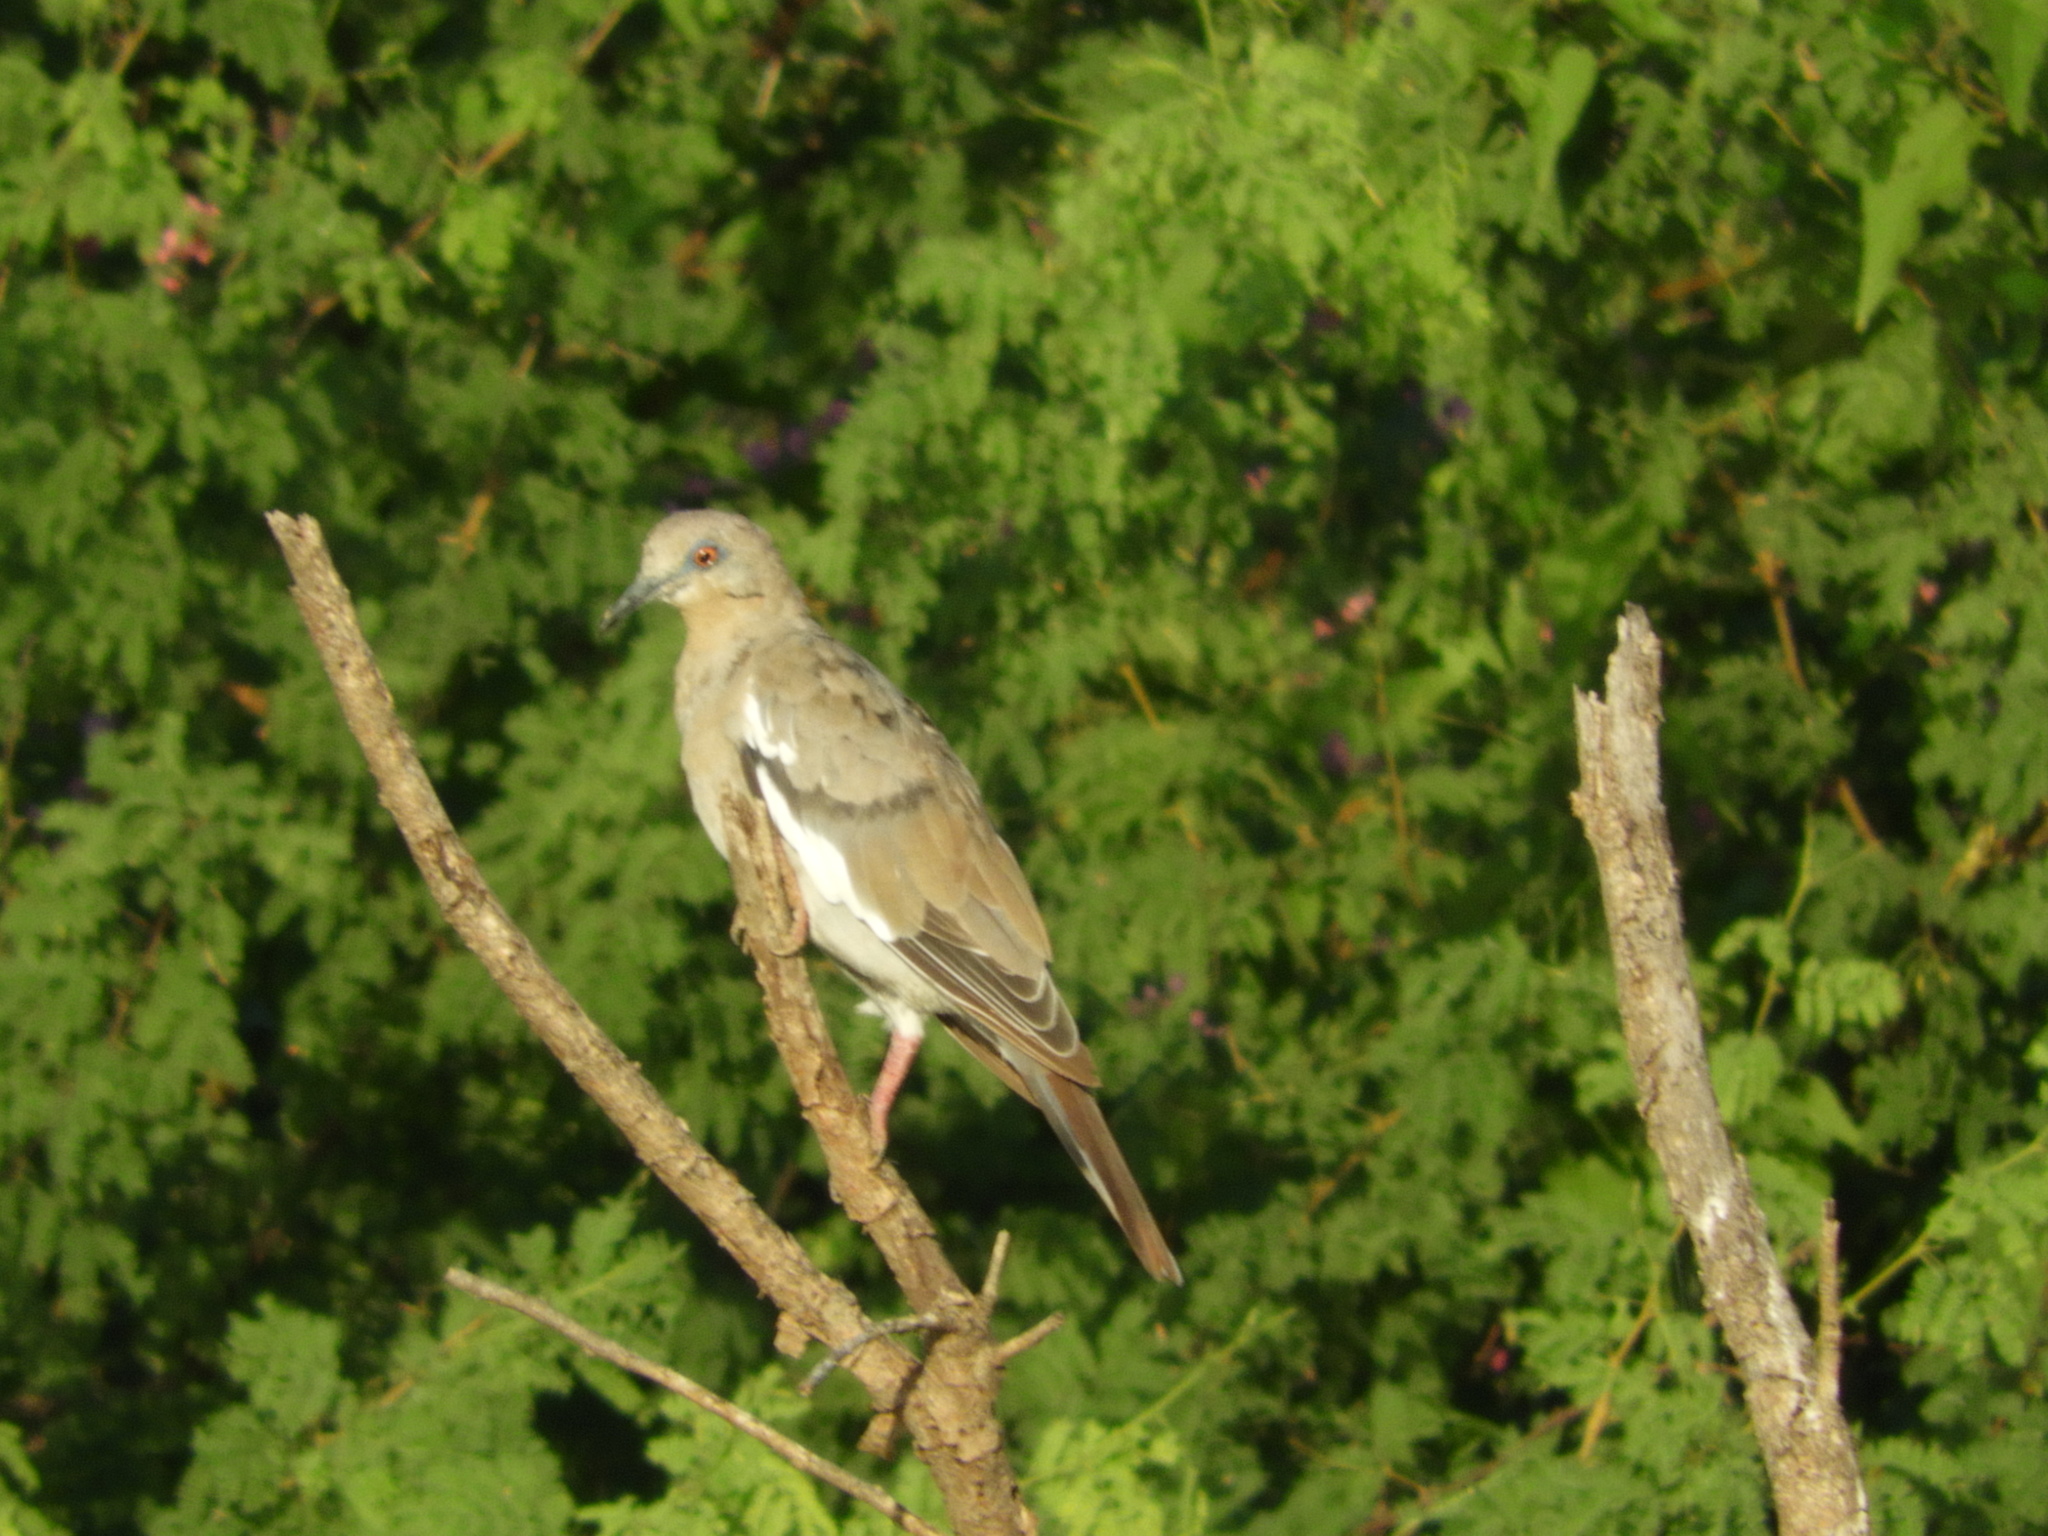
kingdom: Animalia
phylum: Chordata
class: Aves
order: Columbiformes
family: Columbidae
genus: Zenaida
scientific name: Zenaida asiatica
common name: White-winged dove
